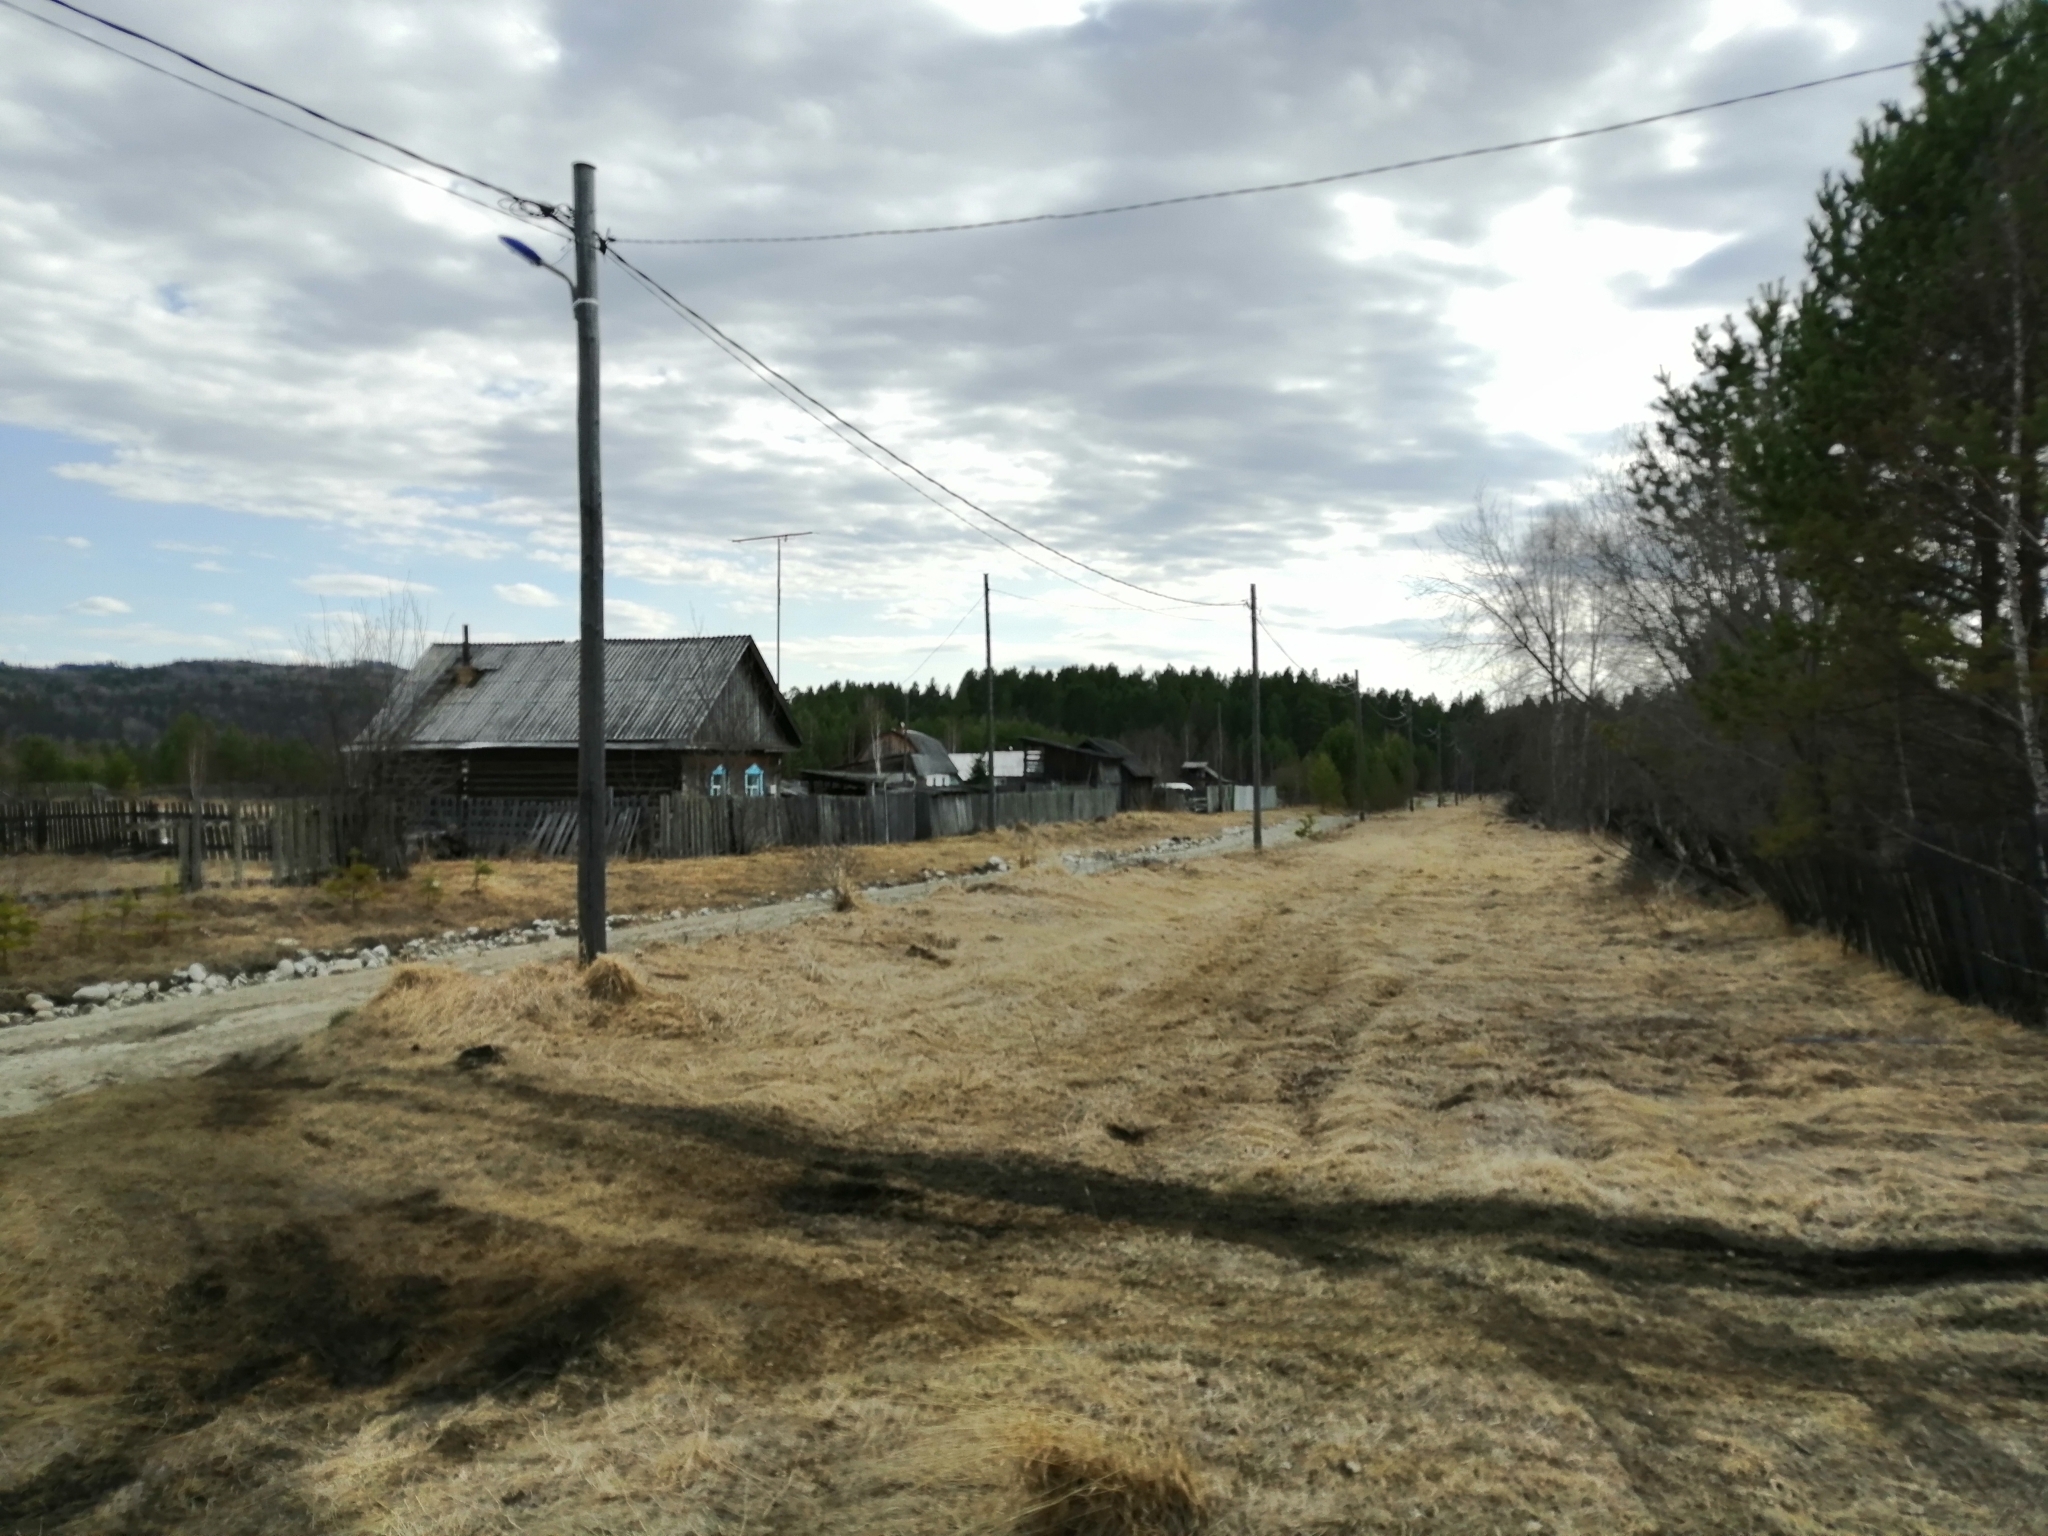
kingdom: Plantae
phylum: Tracheophyta
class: Pinopsida
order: Pinales
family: Pinaceae
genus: Pinus
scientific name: Pinus sylvestris
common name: Scots pine
